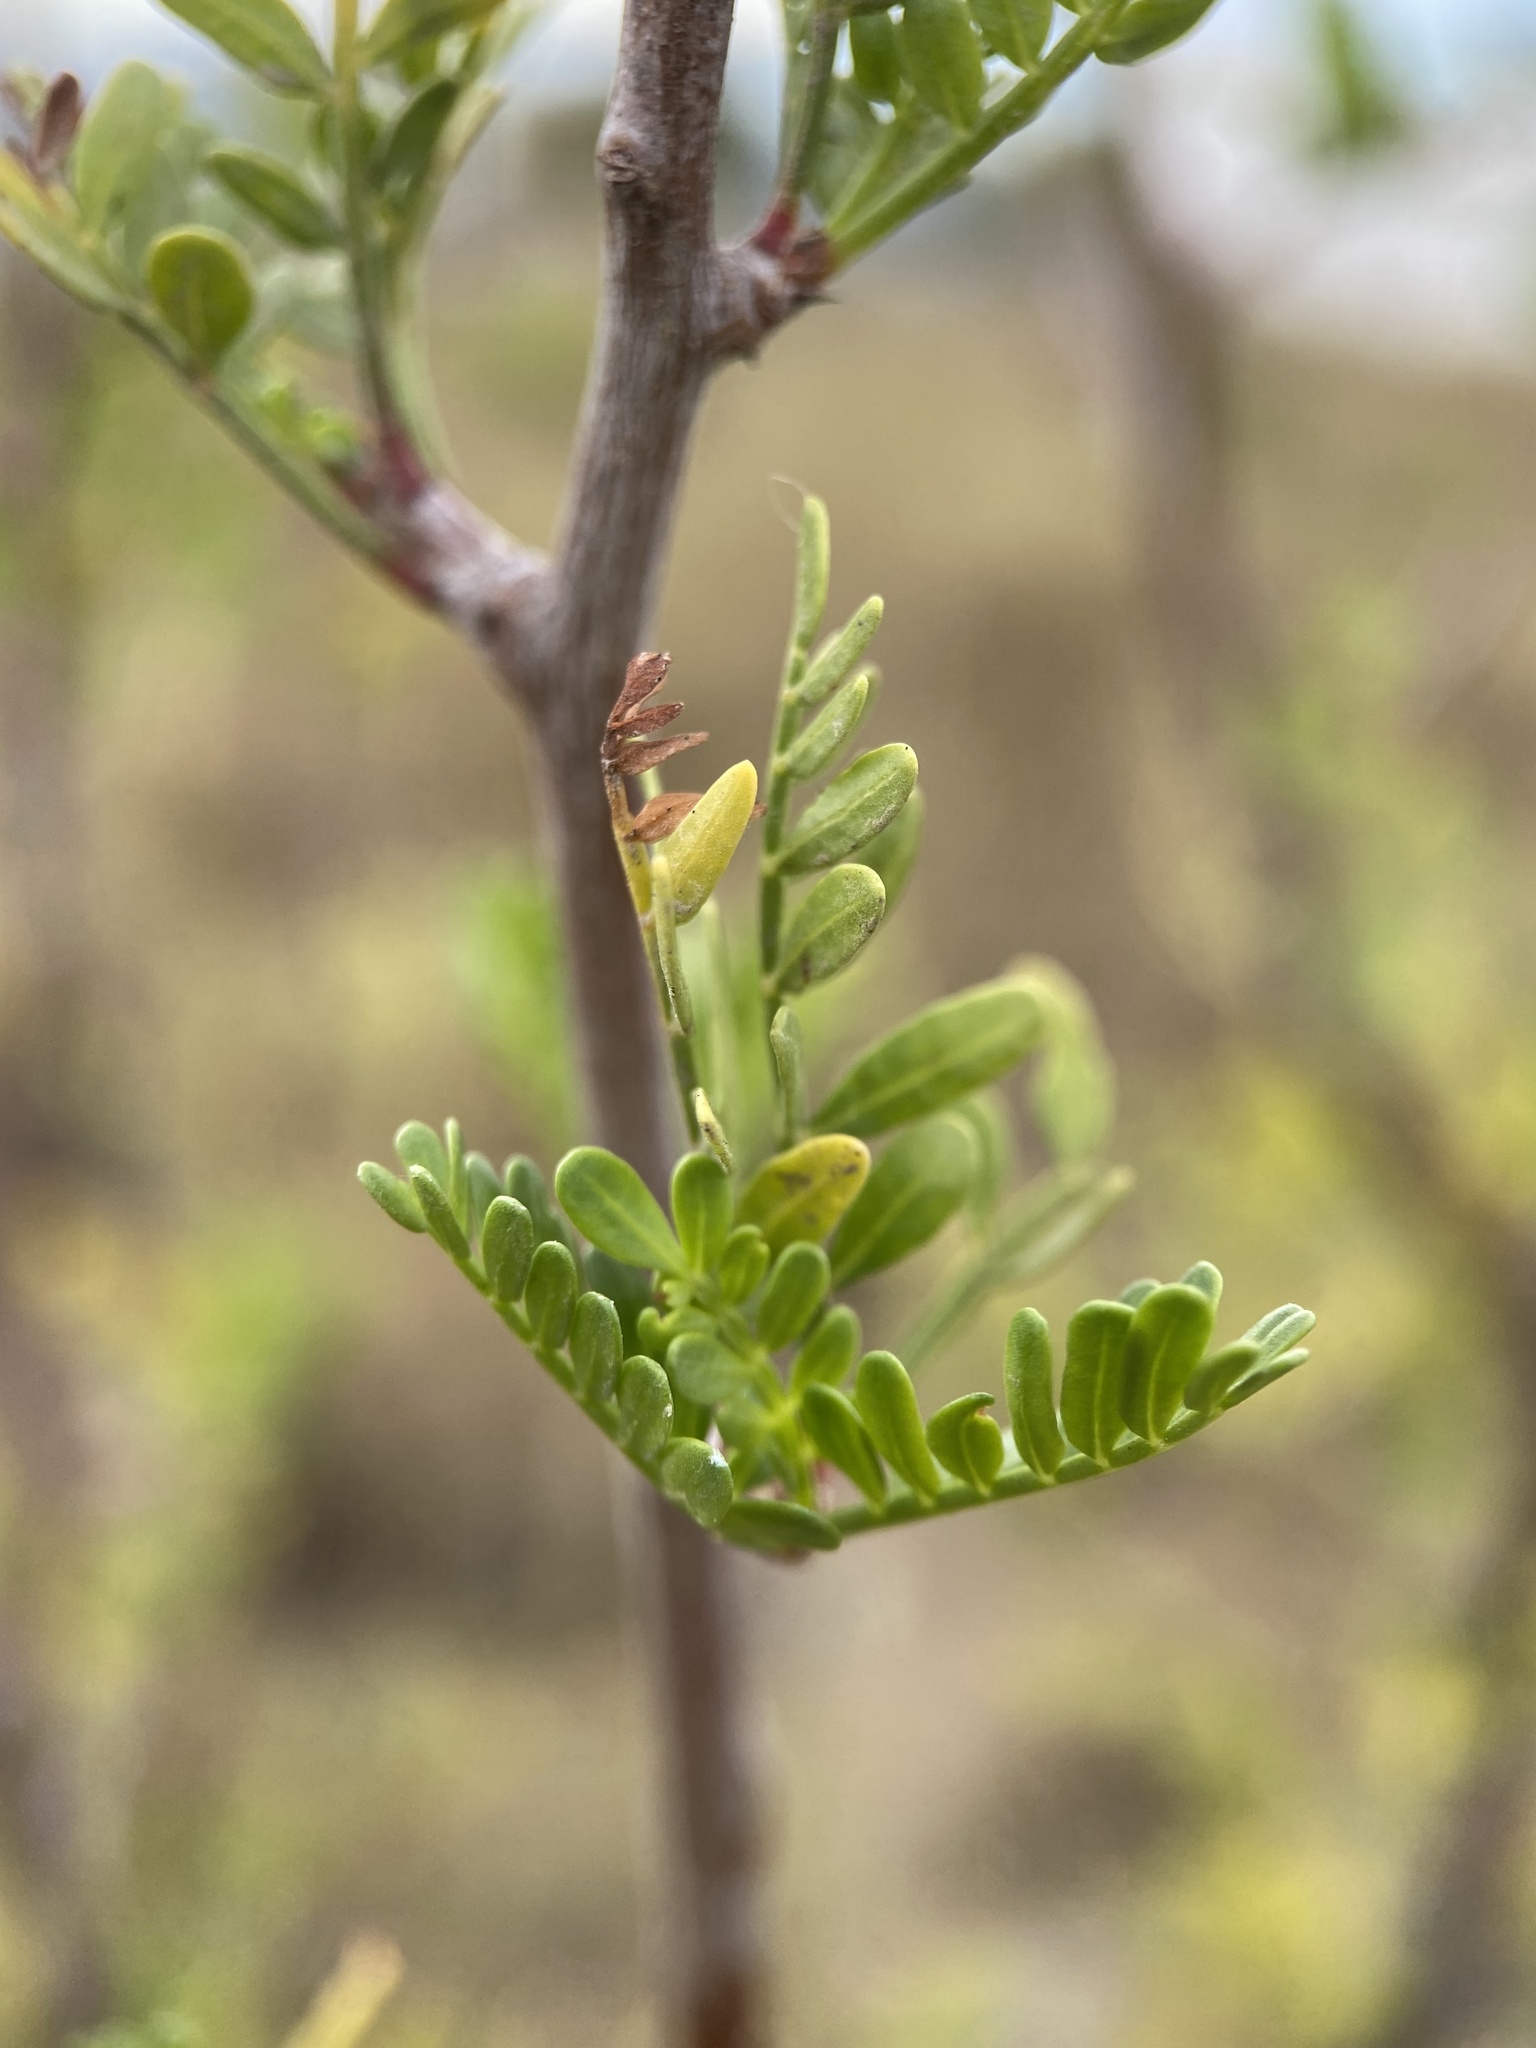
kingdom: Plantae
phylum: Tracheophyta
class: Magnoliopsida
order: Sapindales
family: Burseraceae
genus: Bursera
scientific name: Bursera microphylla
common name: Elephant tree
